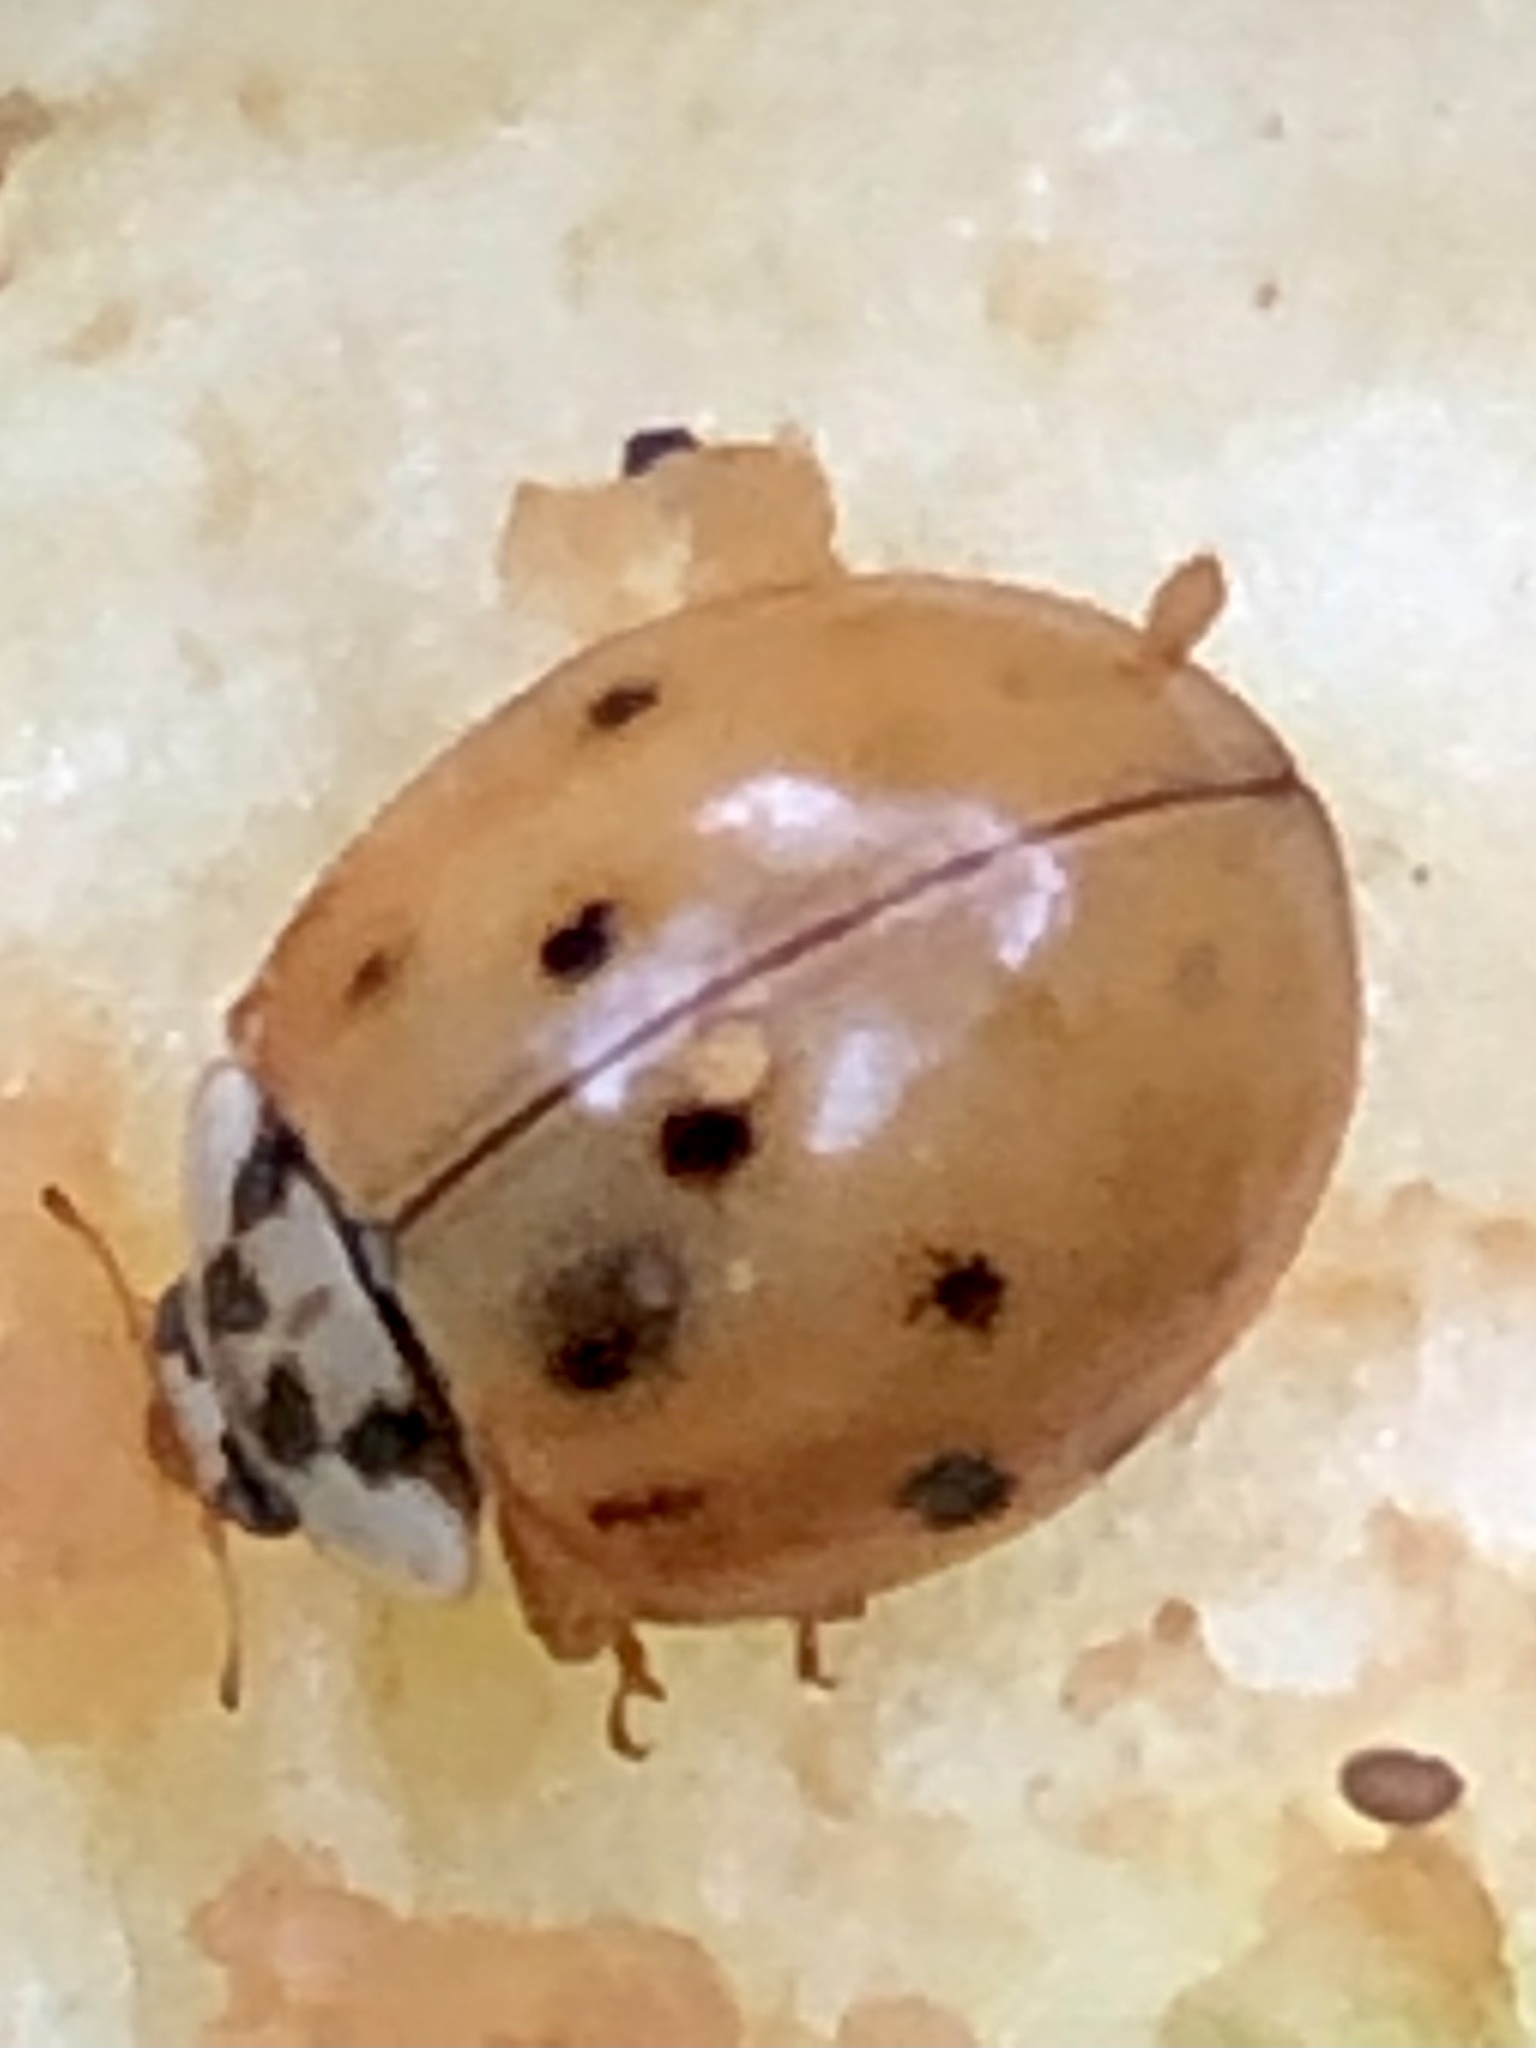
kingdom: Animalia
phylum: Arthropoda
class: Insecta
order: Coleoptera
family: Coccinellidae
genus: Harmonia
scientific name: Harmonia axyridis
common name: Harlequin ladybird
